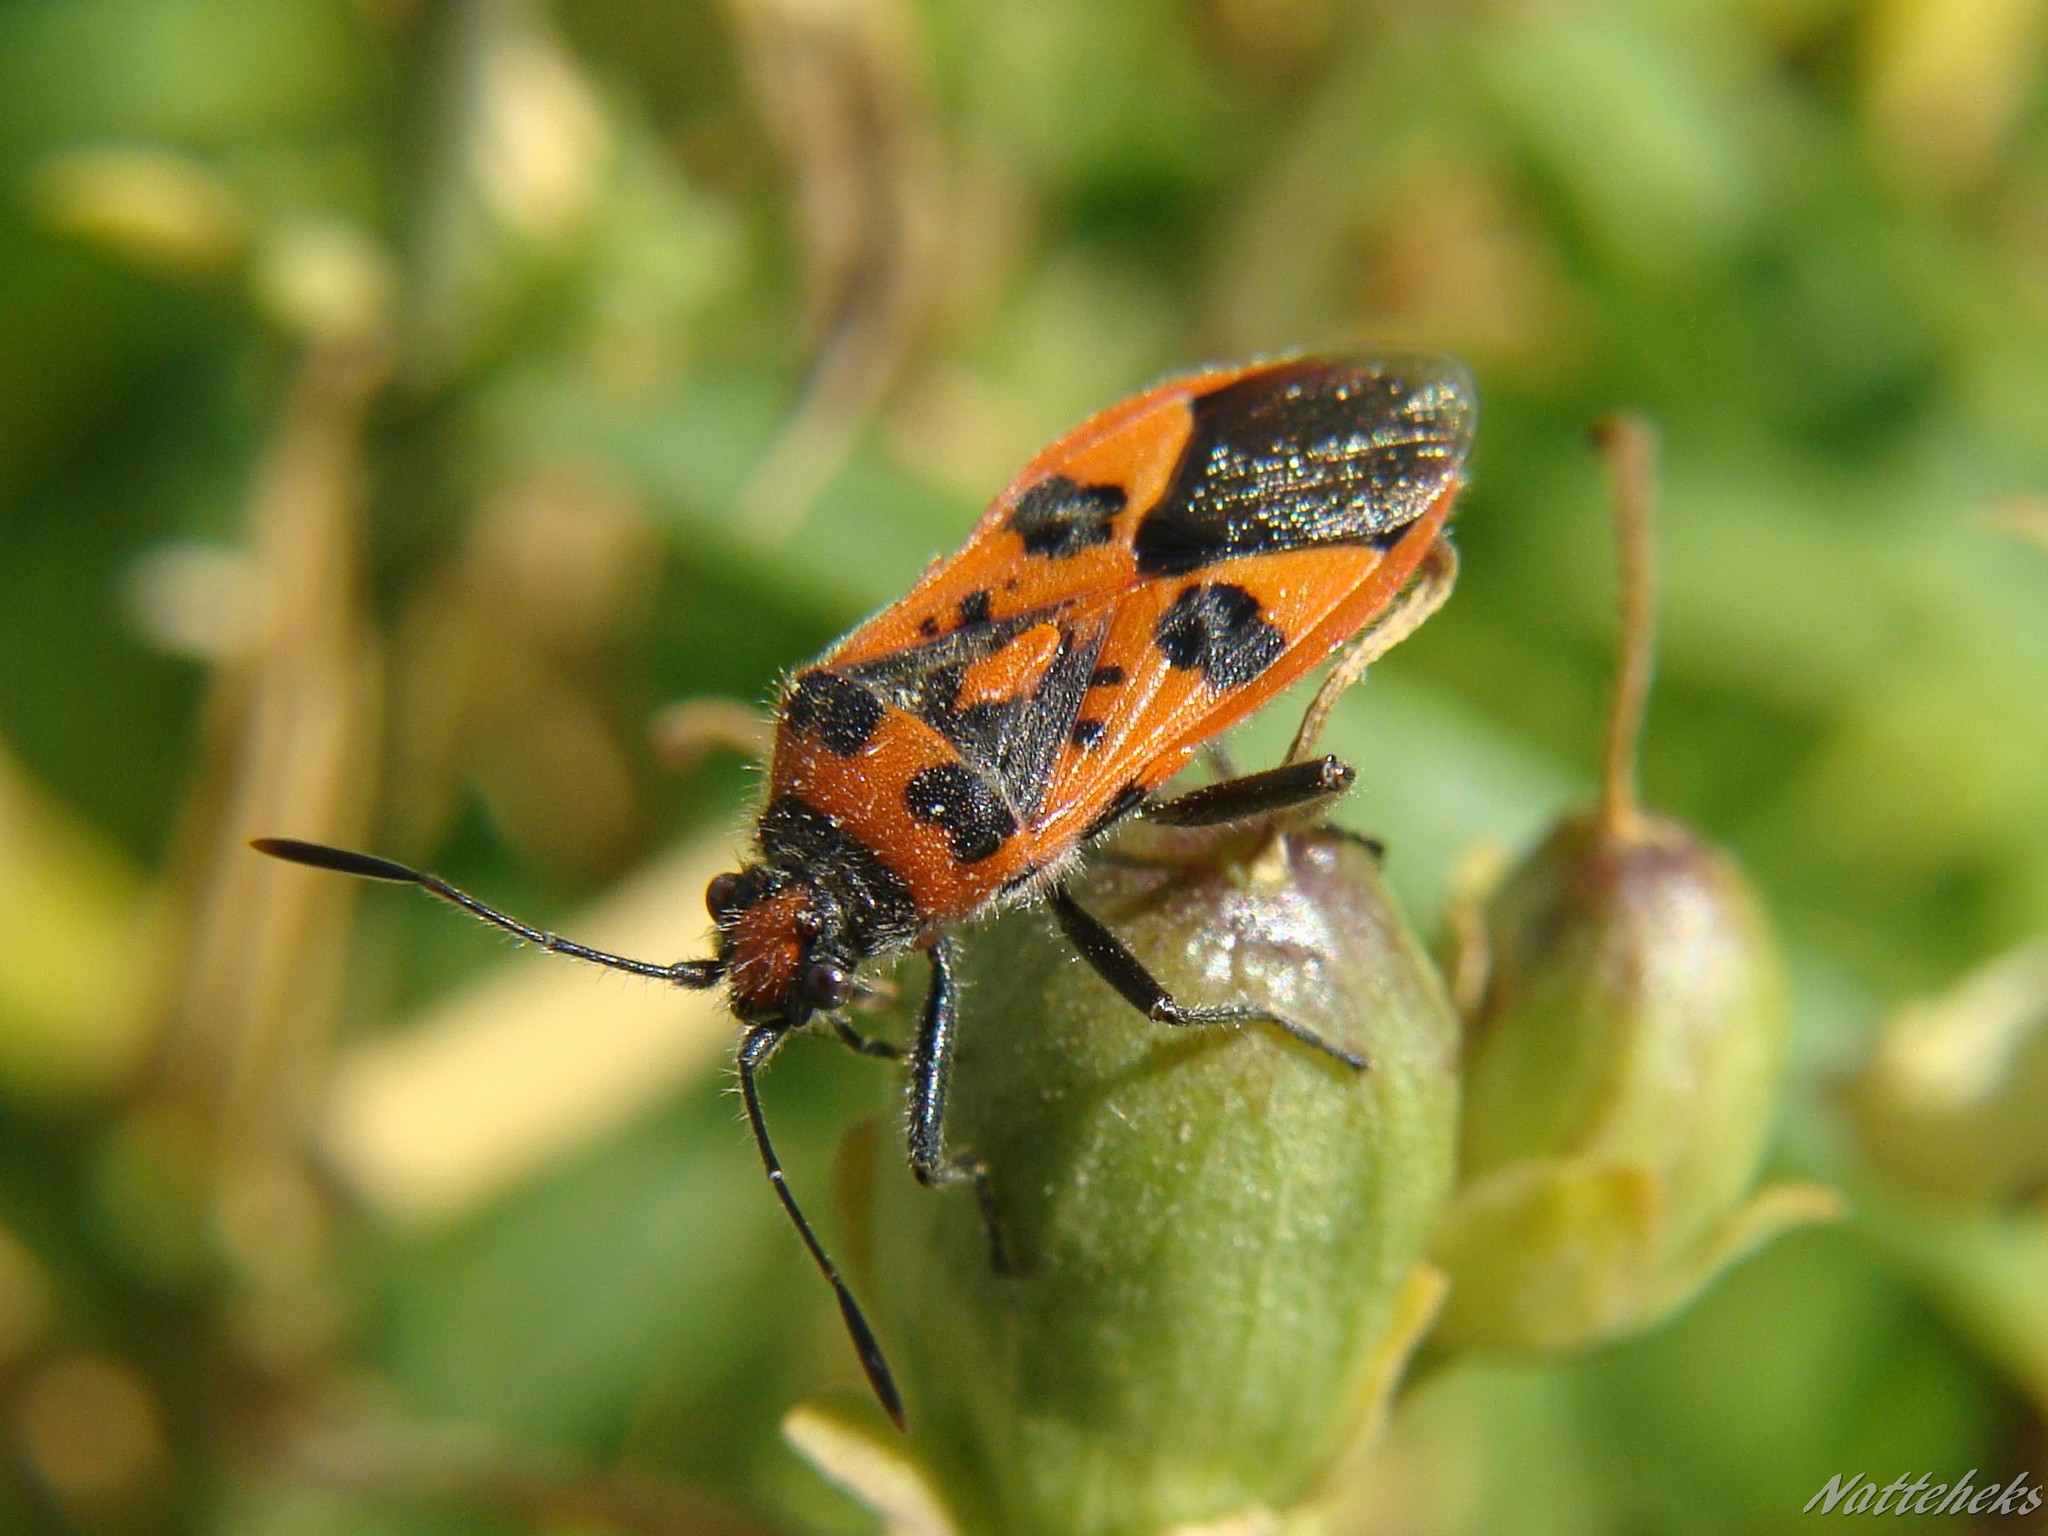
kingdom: Animalia
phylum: Arthropoda
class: Insecta
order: Hemiptera
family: Rhopalidae
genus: Corizus
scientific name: Corizus hyoscyami
